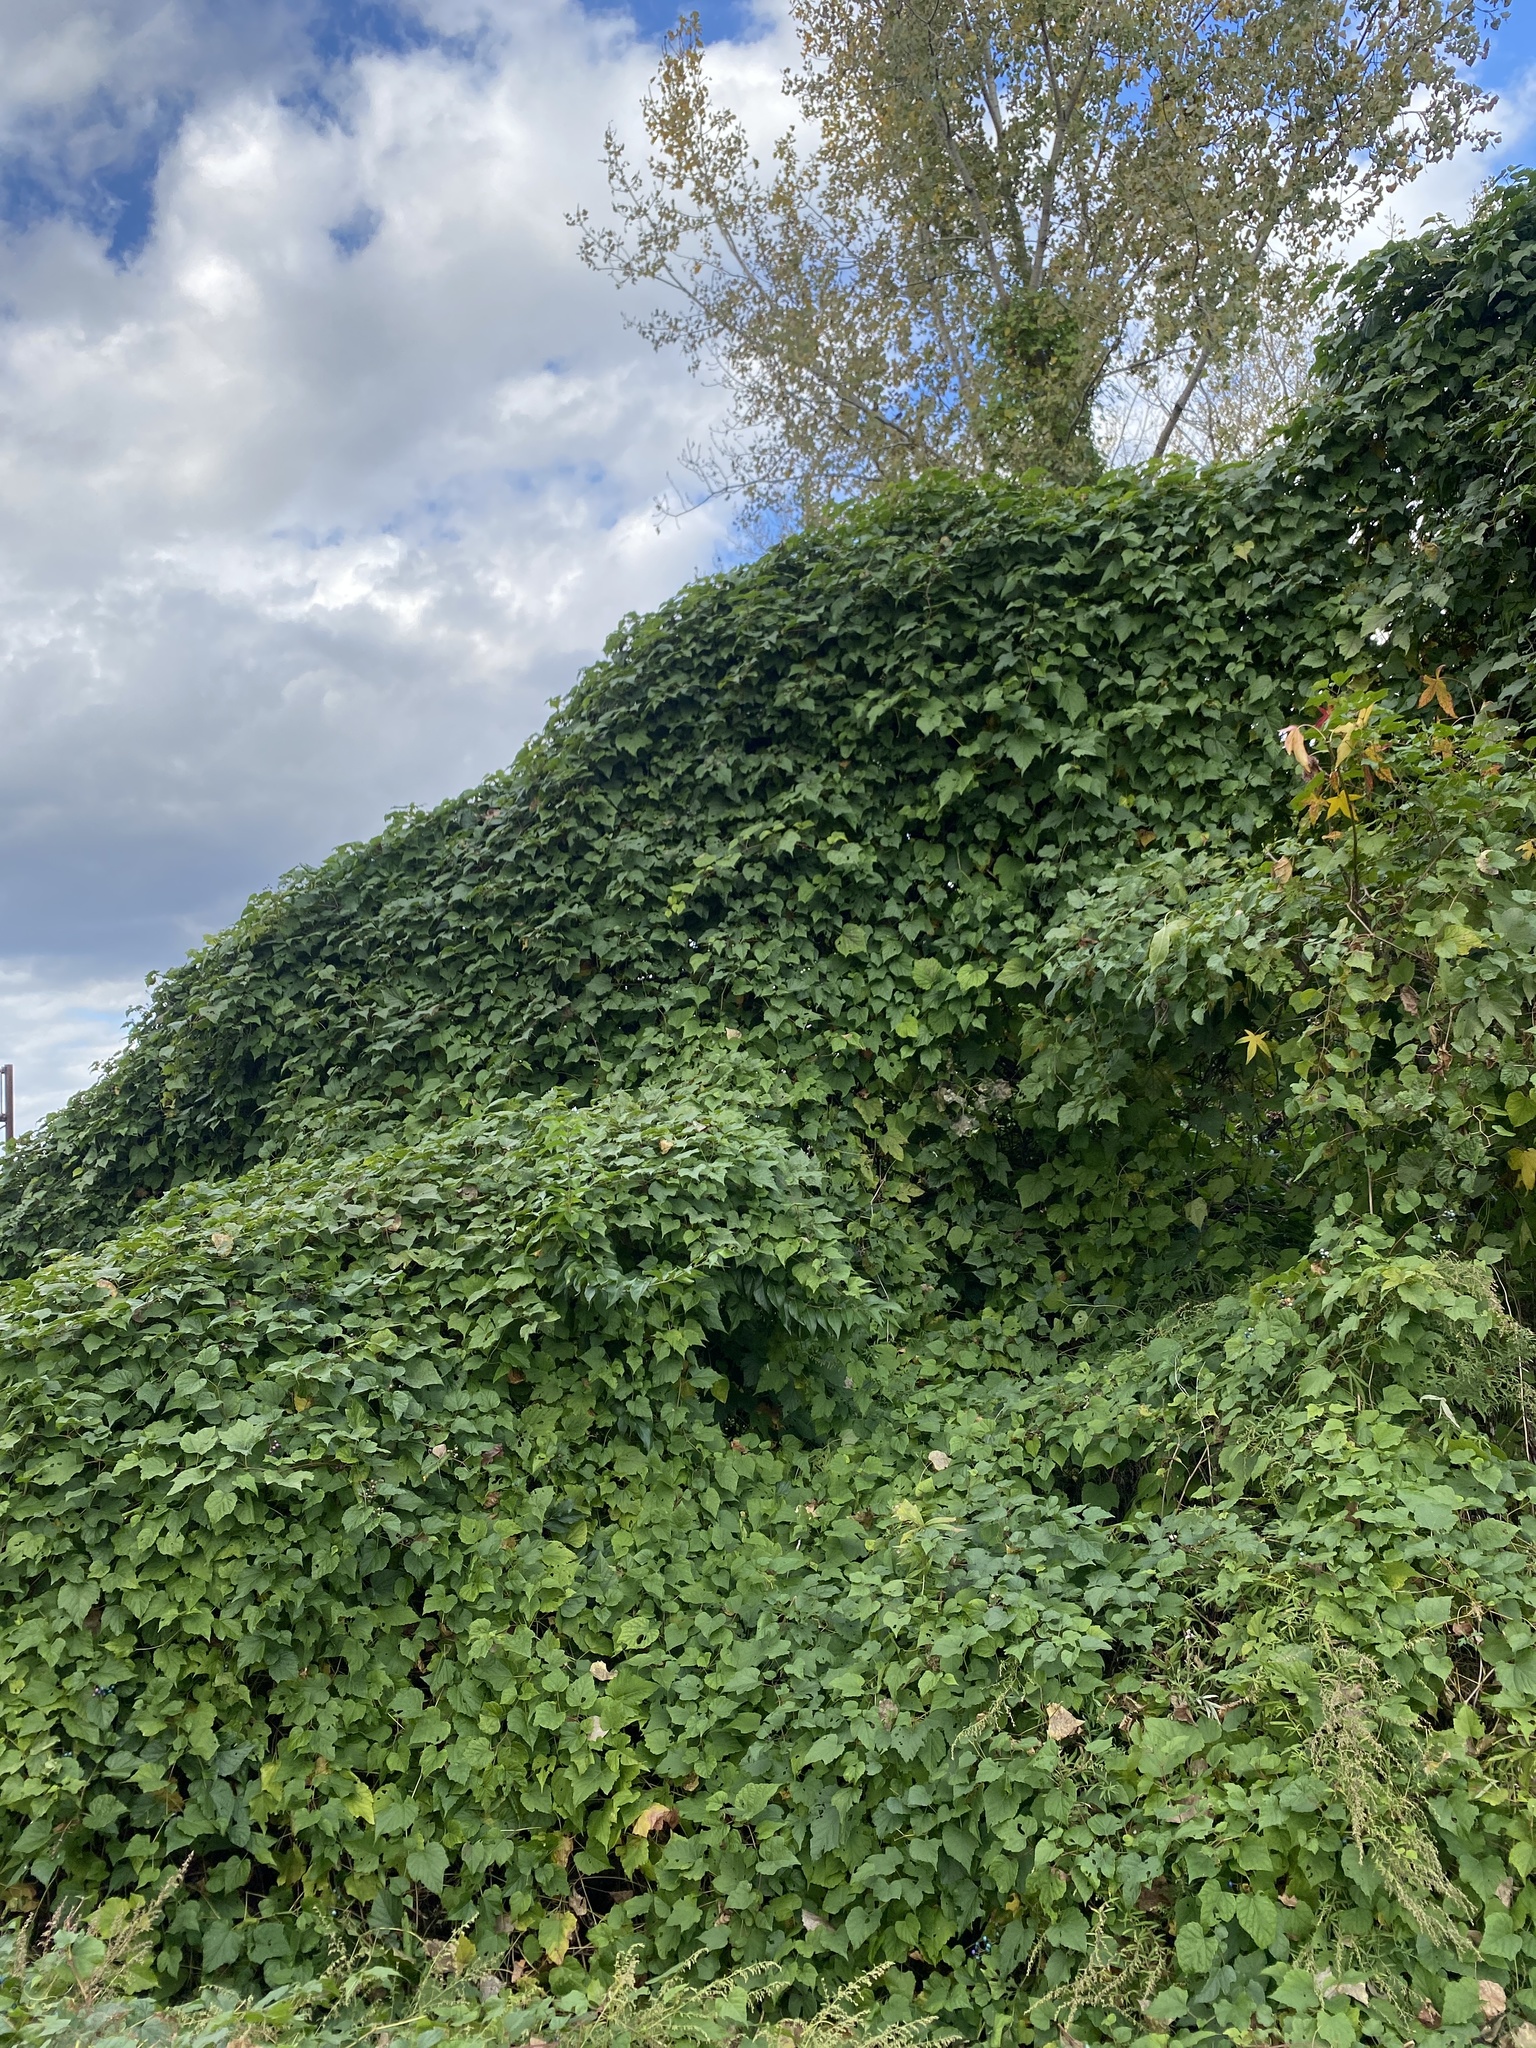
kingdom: Plantae
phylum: Tracheophyta
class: Magnoliopsida
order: Vitales
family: Vitaceae
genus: Ampelopsis
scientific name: Ampelopsis glandulosa
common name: Amur peppervine
